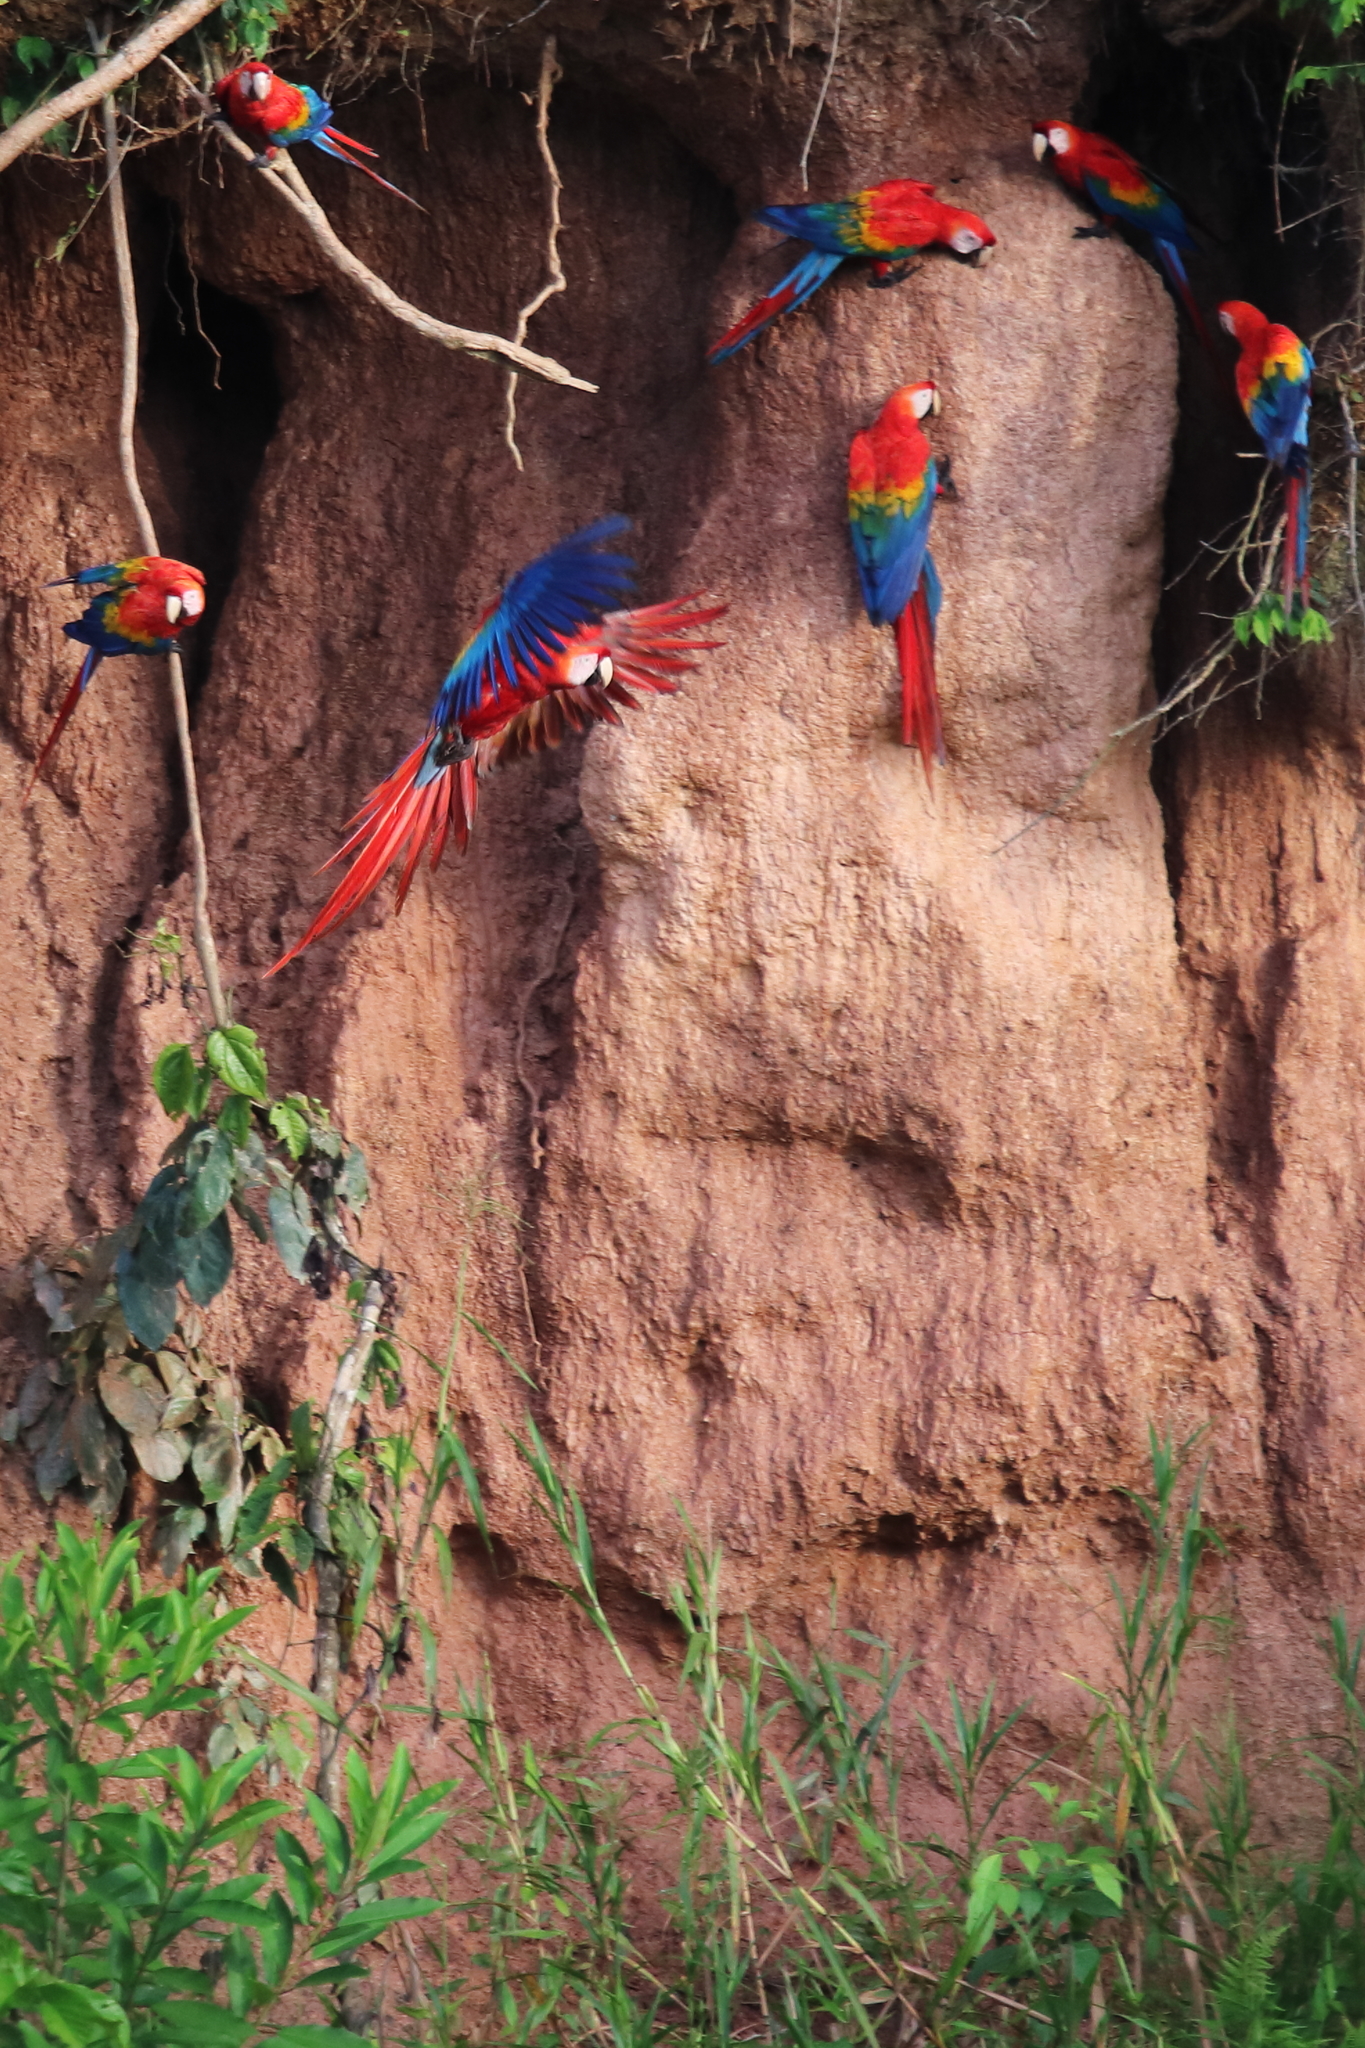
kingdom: Animalia
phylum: Chordata
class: Aves
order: Psittaciformes
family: Psittacidae
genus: Ara
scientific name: Ara macao
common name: Scarlet macaw
